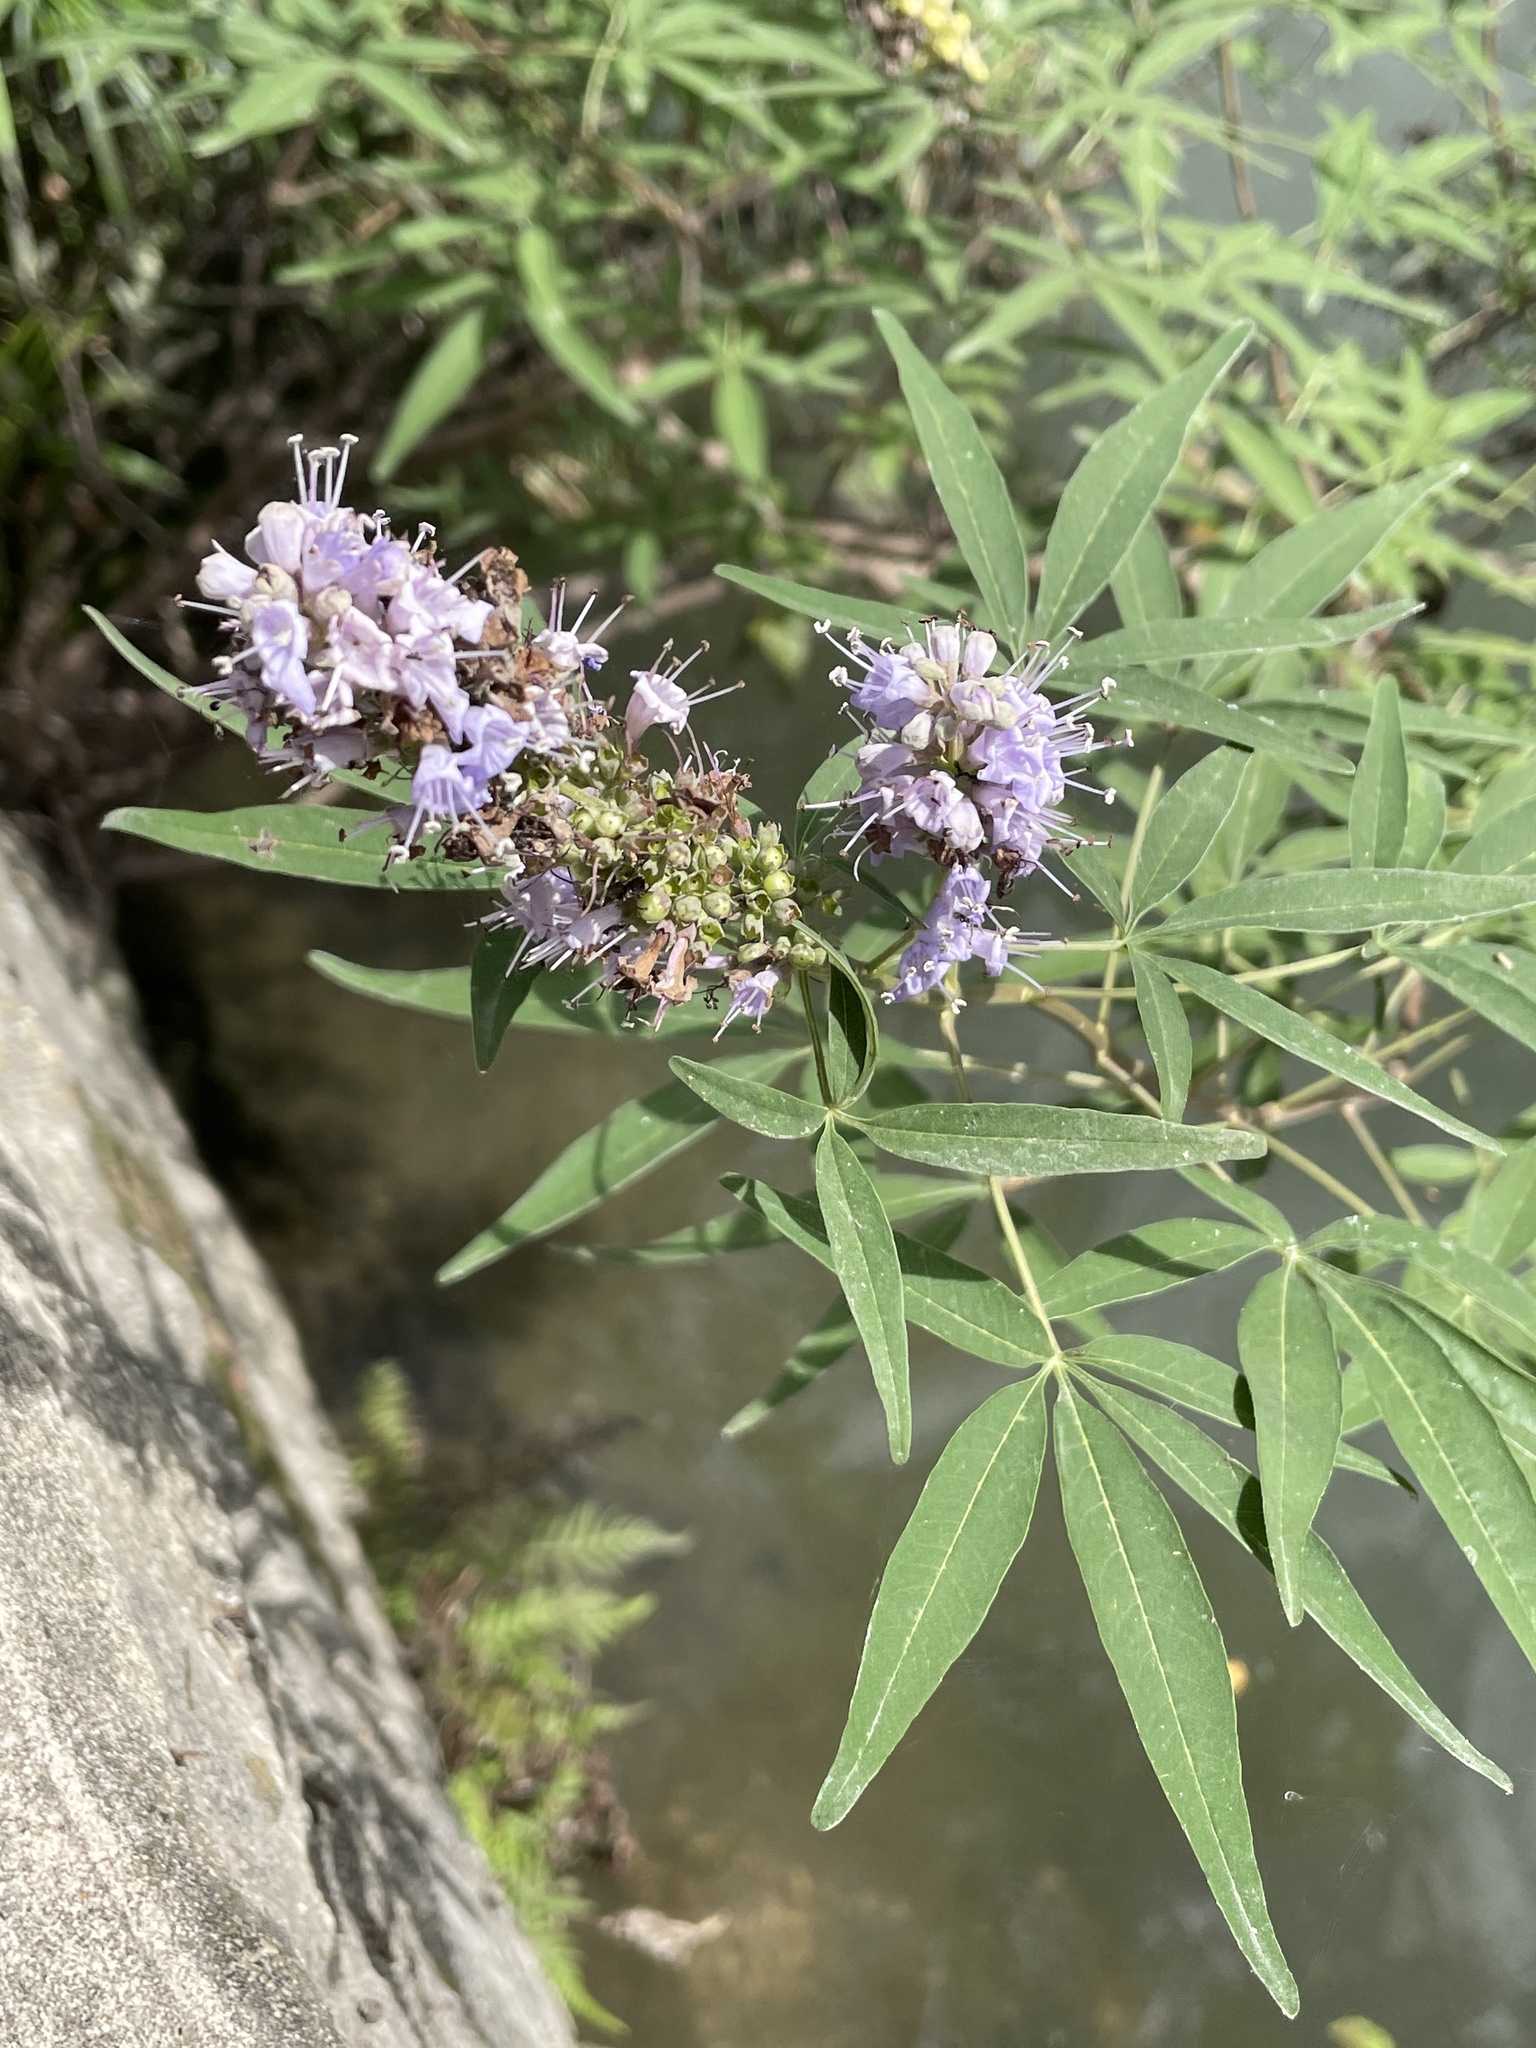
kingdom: Plantae
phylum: Tracheophyta
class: Magnoliopsida
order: Lamiales
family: Lamiaceae
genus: Vitex
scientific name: Vitex agnus-castus
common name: Chasteberry
